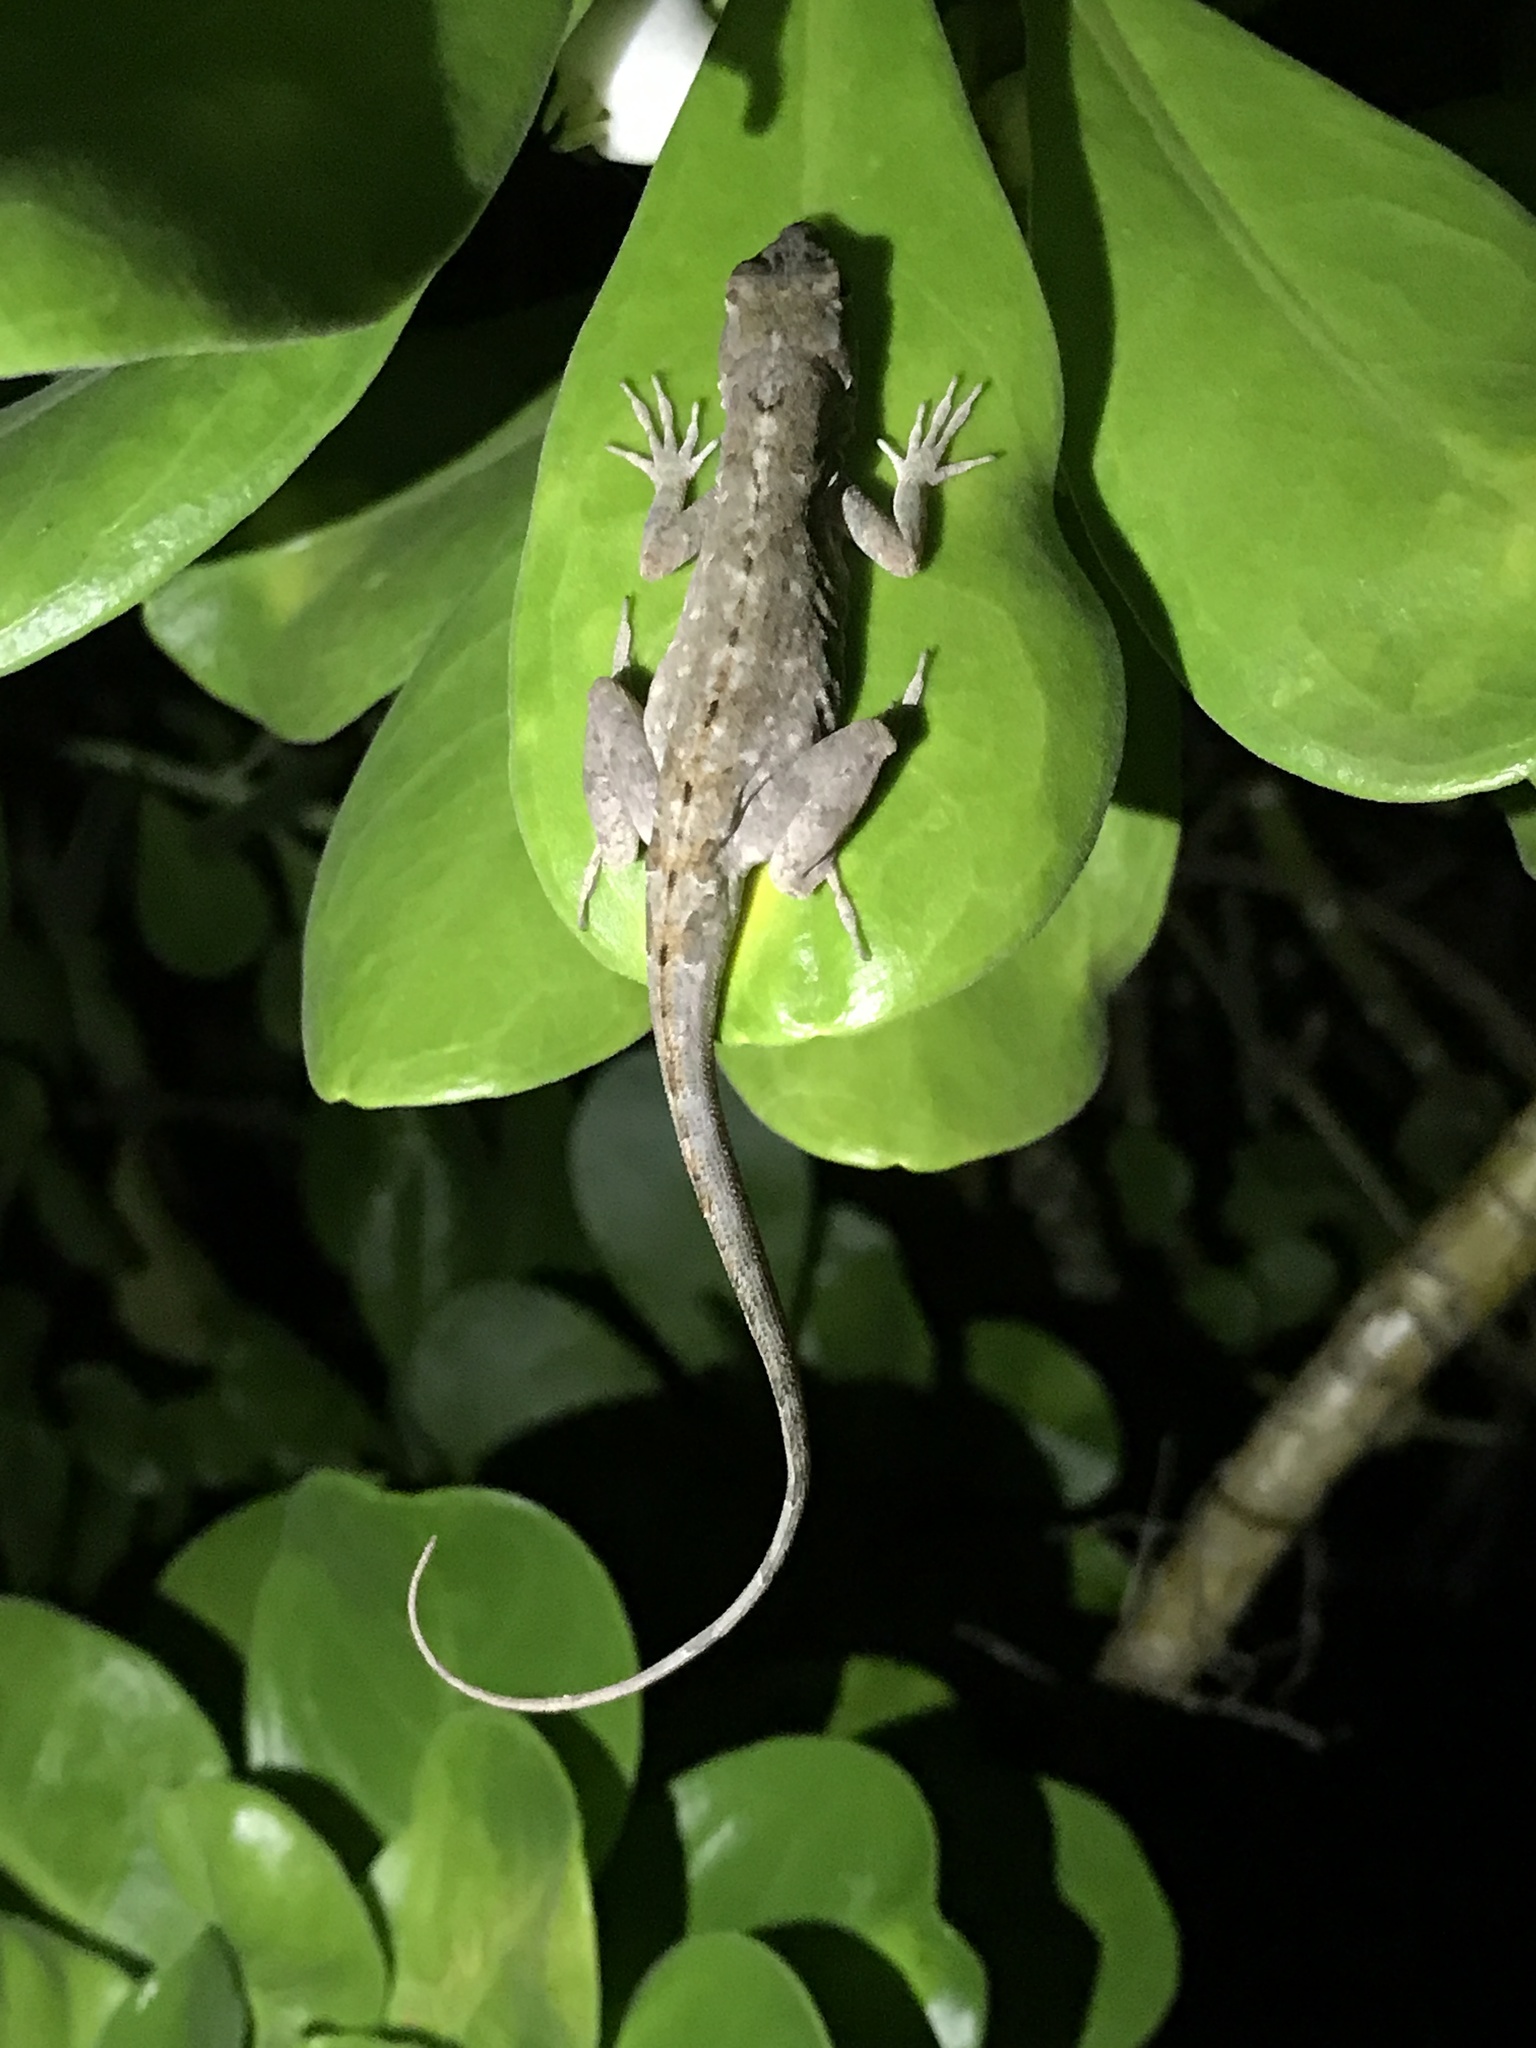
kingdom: Animalia
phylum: Chordata
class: Squamata
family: Dactyloidae
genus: Anolis
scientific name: Anolis sagrei
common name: Brown anole
